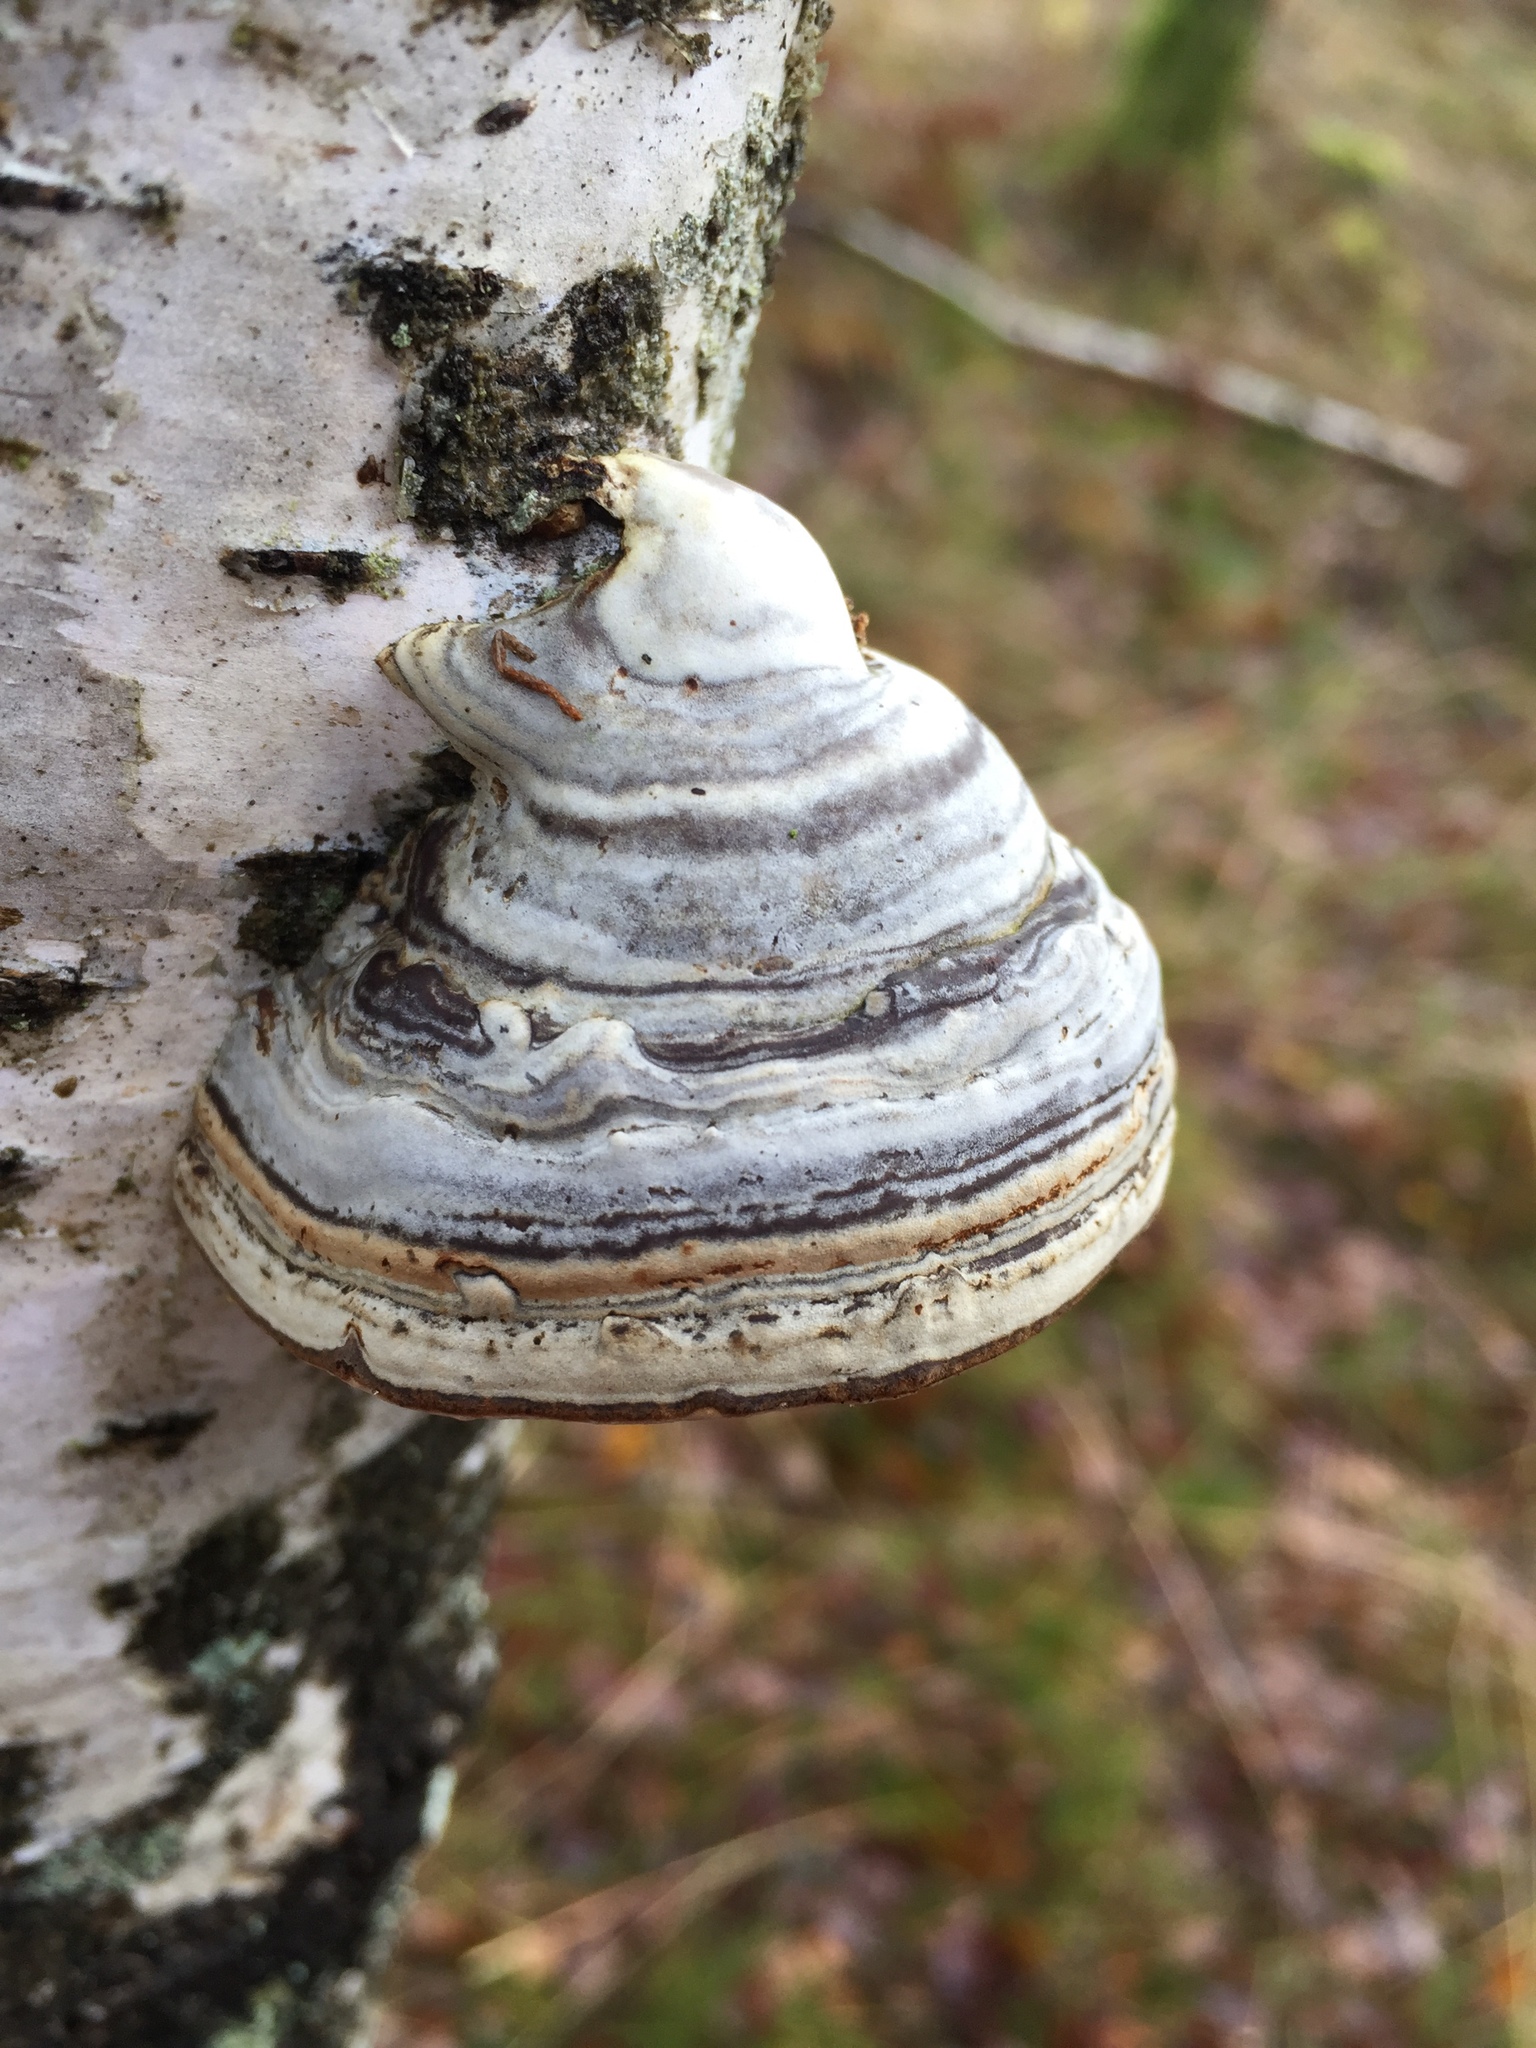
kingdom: Fungi
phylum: Basidiomycota
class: Agaricomycetes
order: Polyporales
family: Polyporaceae
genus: Fomes
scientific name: Fomes fomentarius
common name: Hoof fungus
